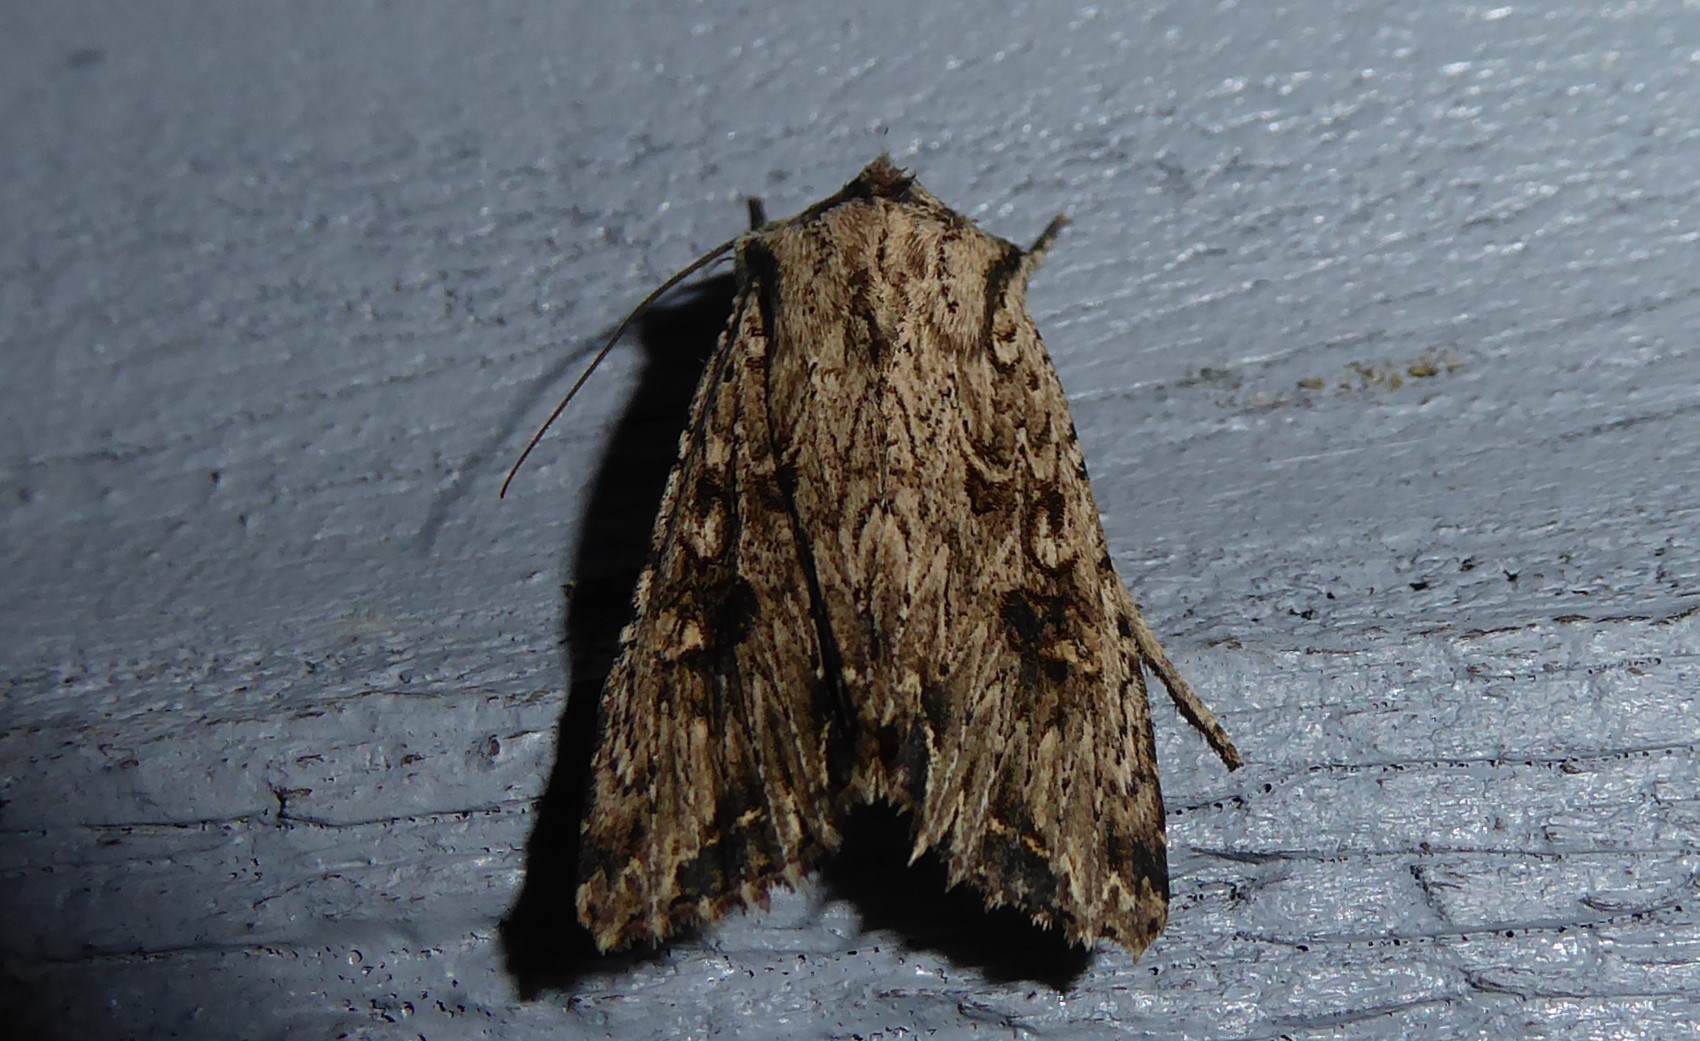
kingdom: Animalia
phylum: Arthropoda
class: Insecta
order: Lepidoptera
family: Noctuidae
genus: Ichneutica
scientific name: Ichneutica lignana
